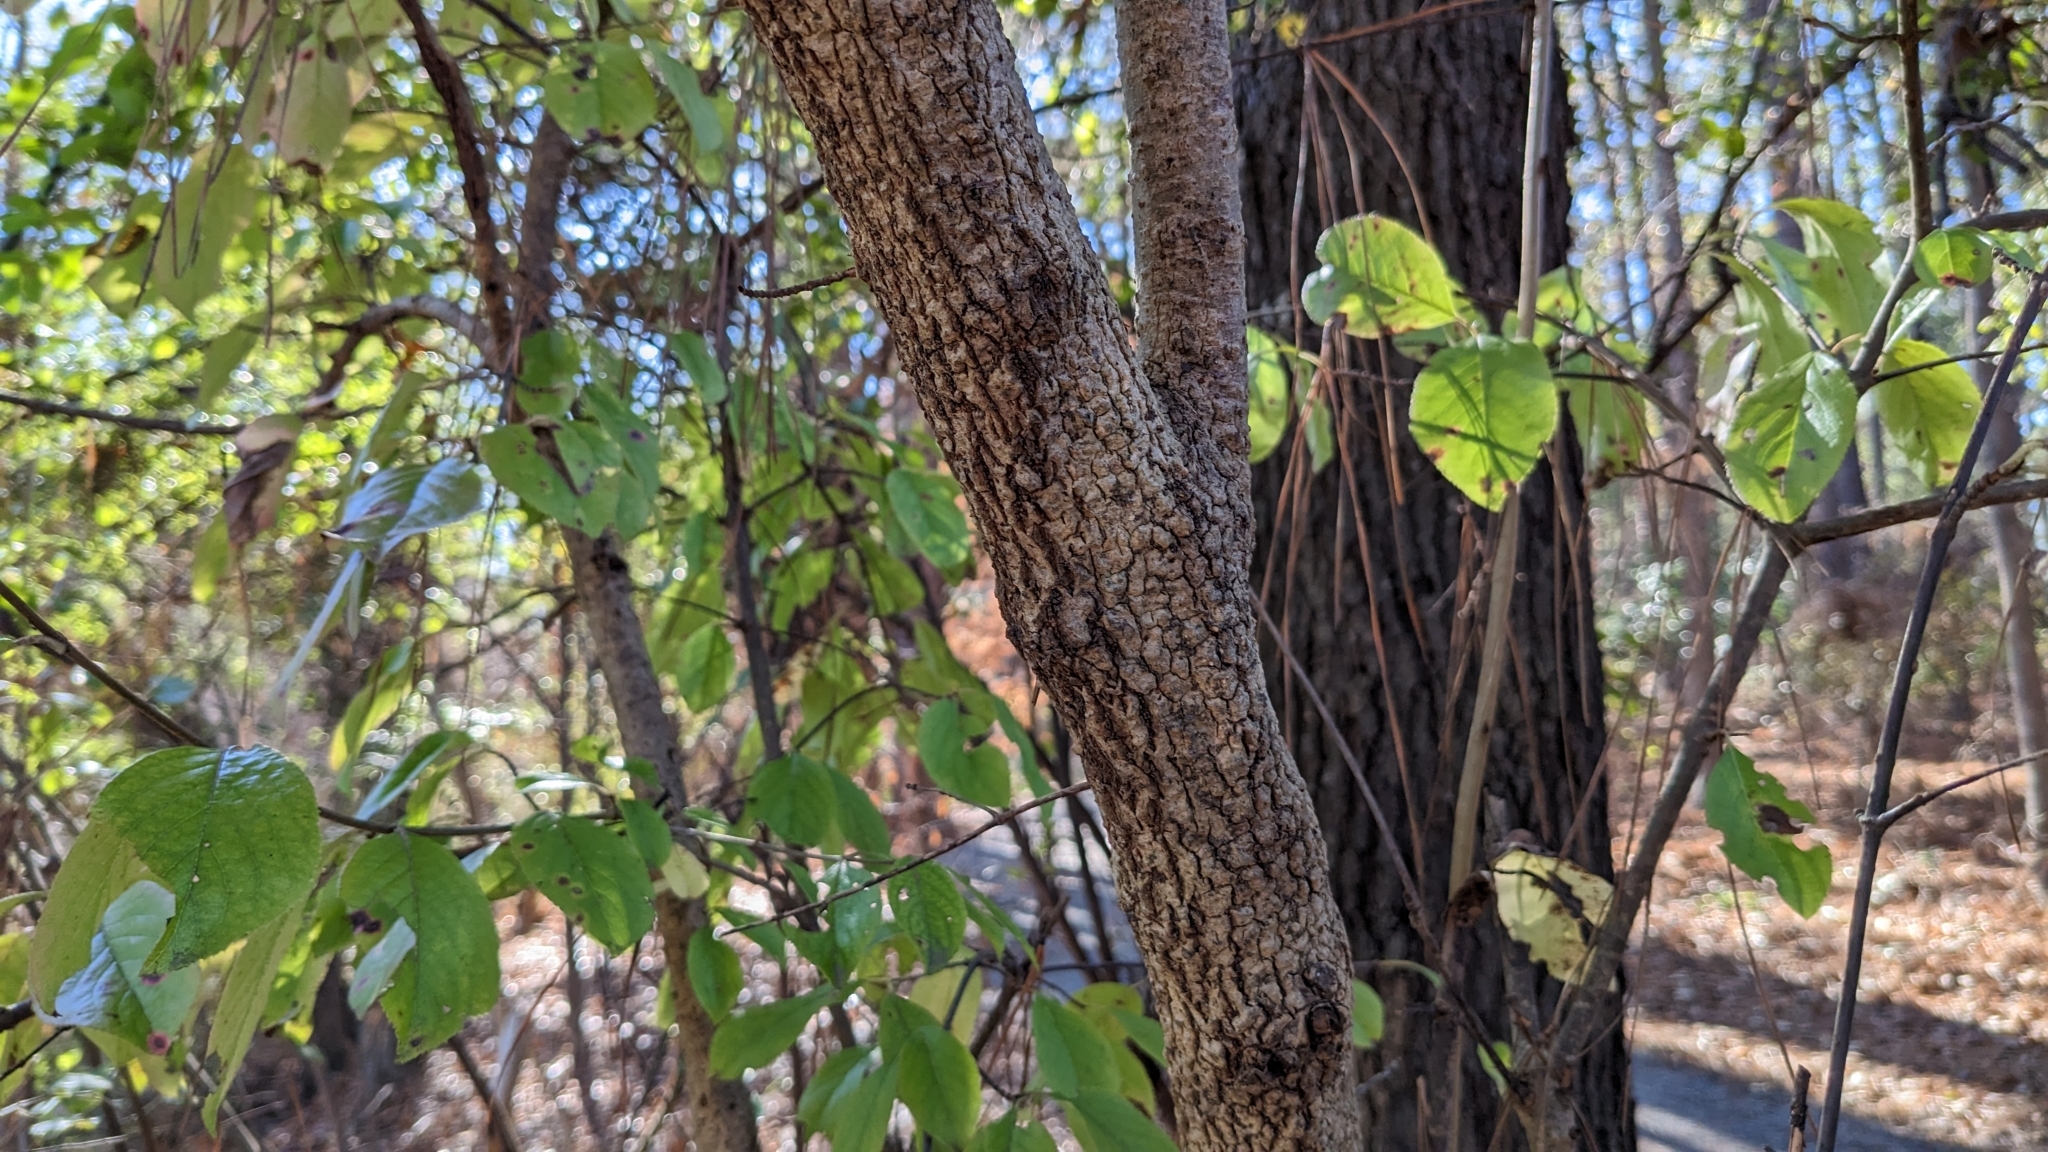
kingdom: Plantae
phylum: Tracheophyta
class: Magnoliopsida
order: Dipsacales
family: Viburnaceae
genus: Viburnum
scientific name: Viburnum rufidulum
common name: Blue haw
